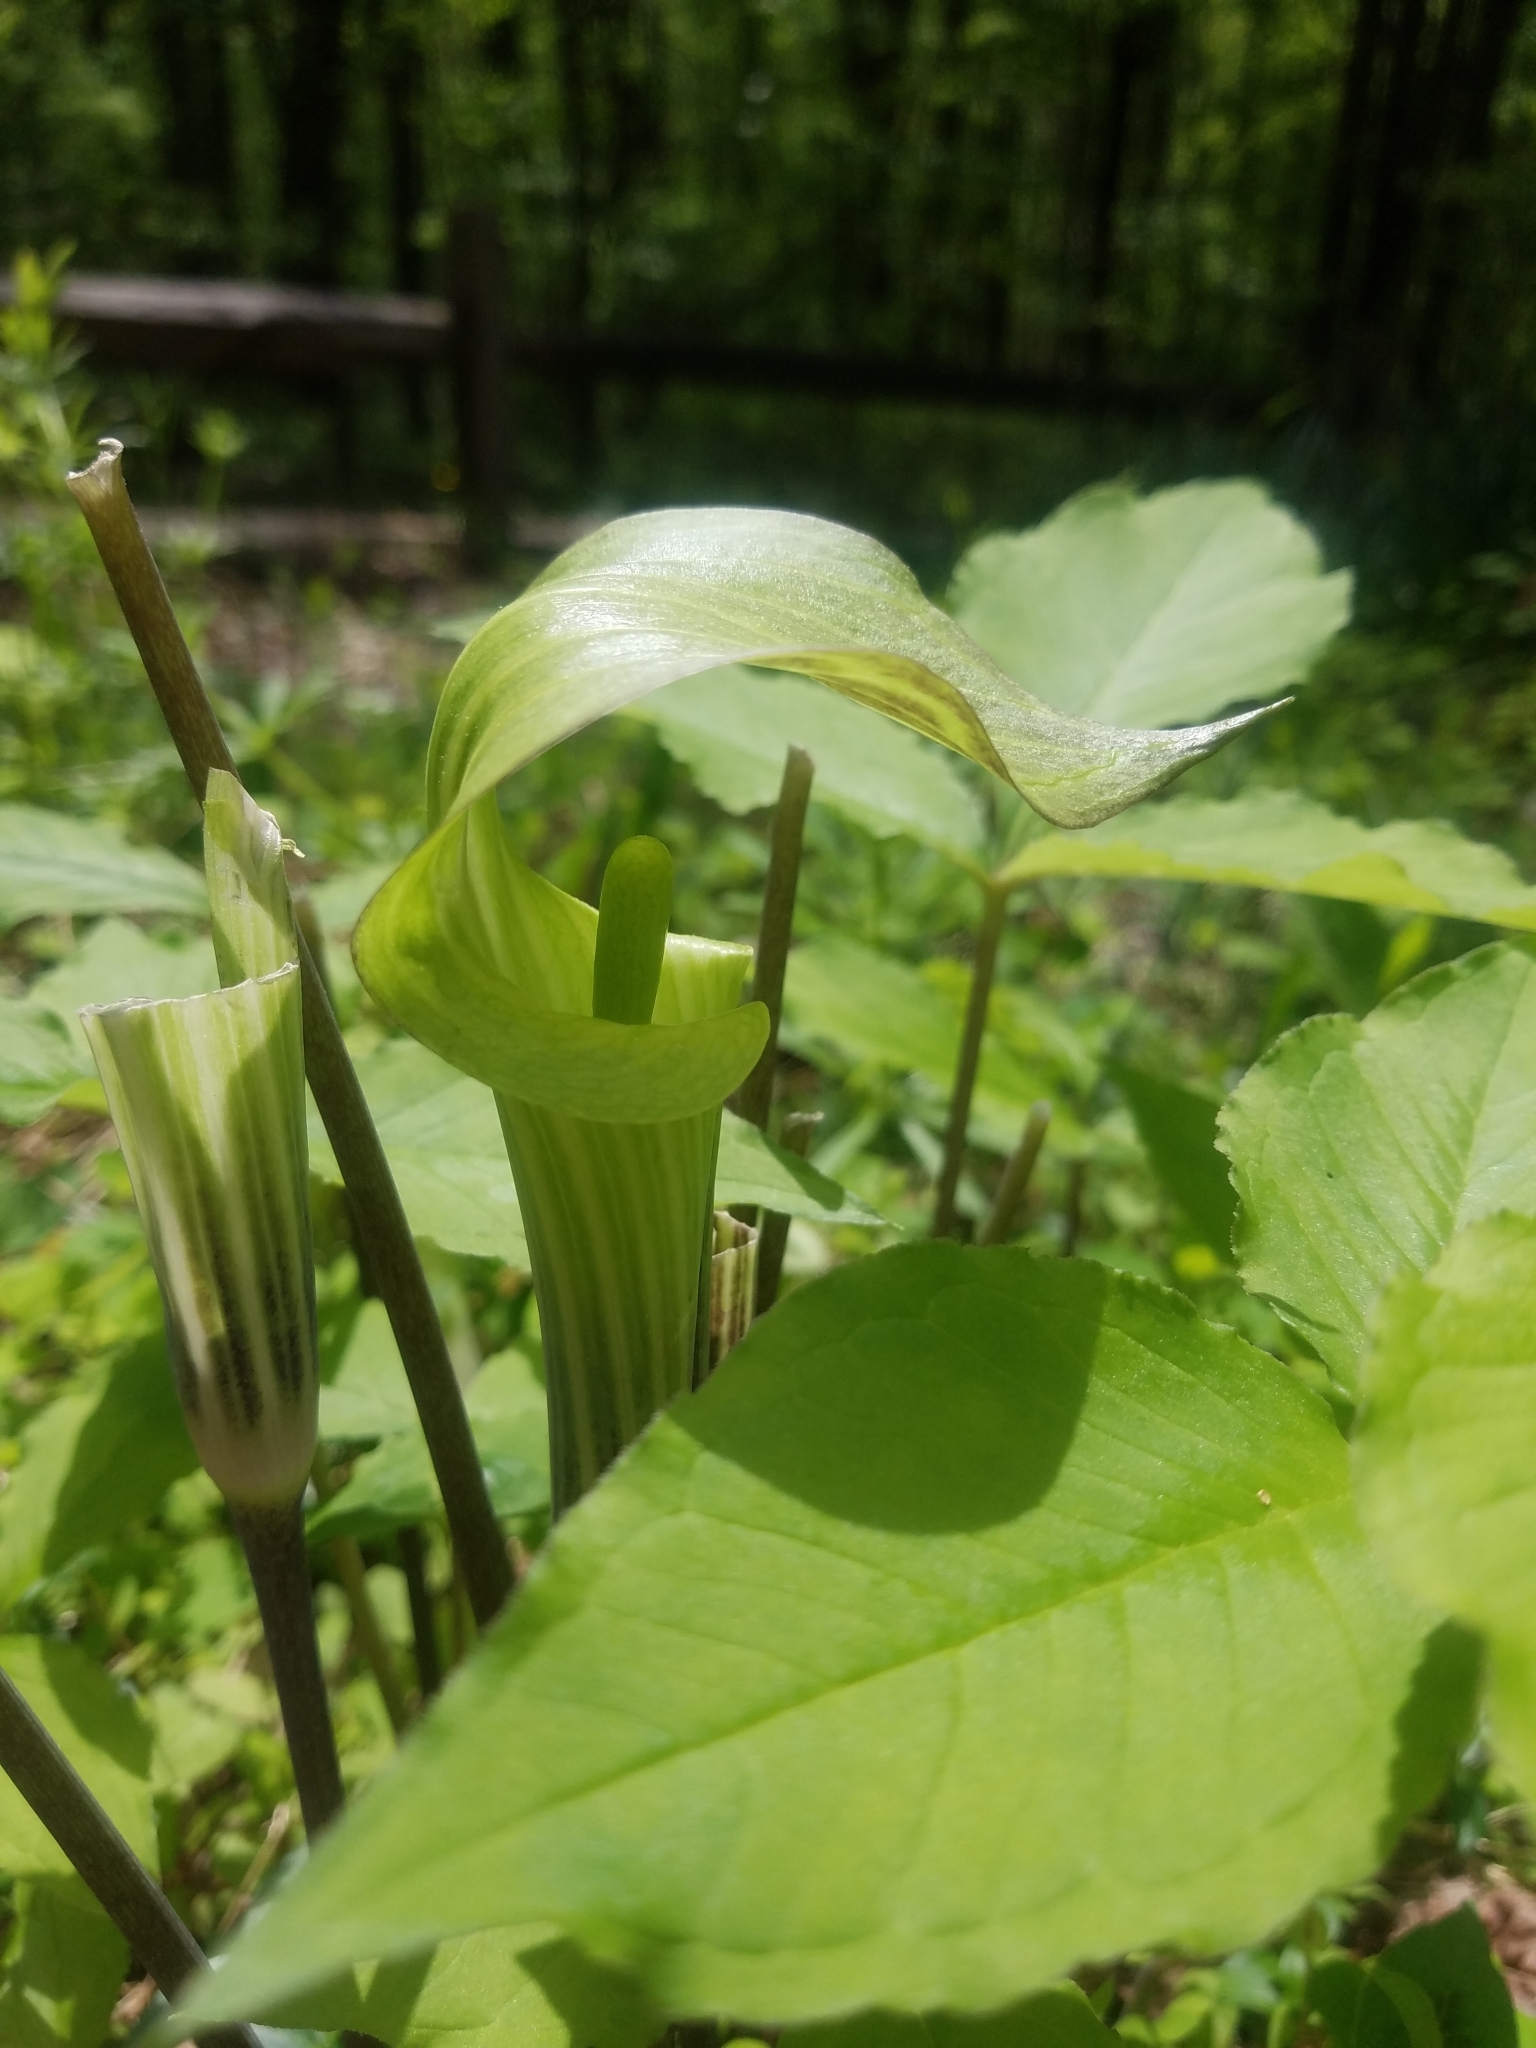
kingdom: Plantae
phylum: Tracheophyta
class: Liliopsida
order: Alismatales
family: Araceae
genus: Arisaema
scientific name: Arisaema triphyllum
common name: Jack-in-the-pulpit
